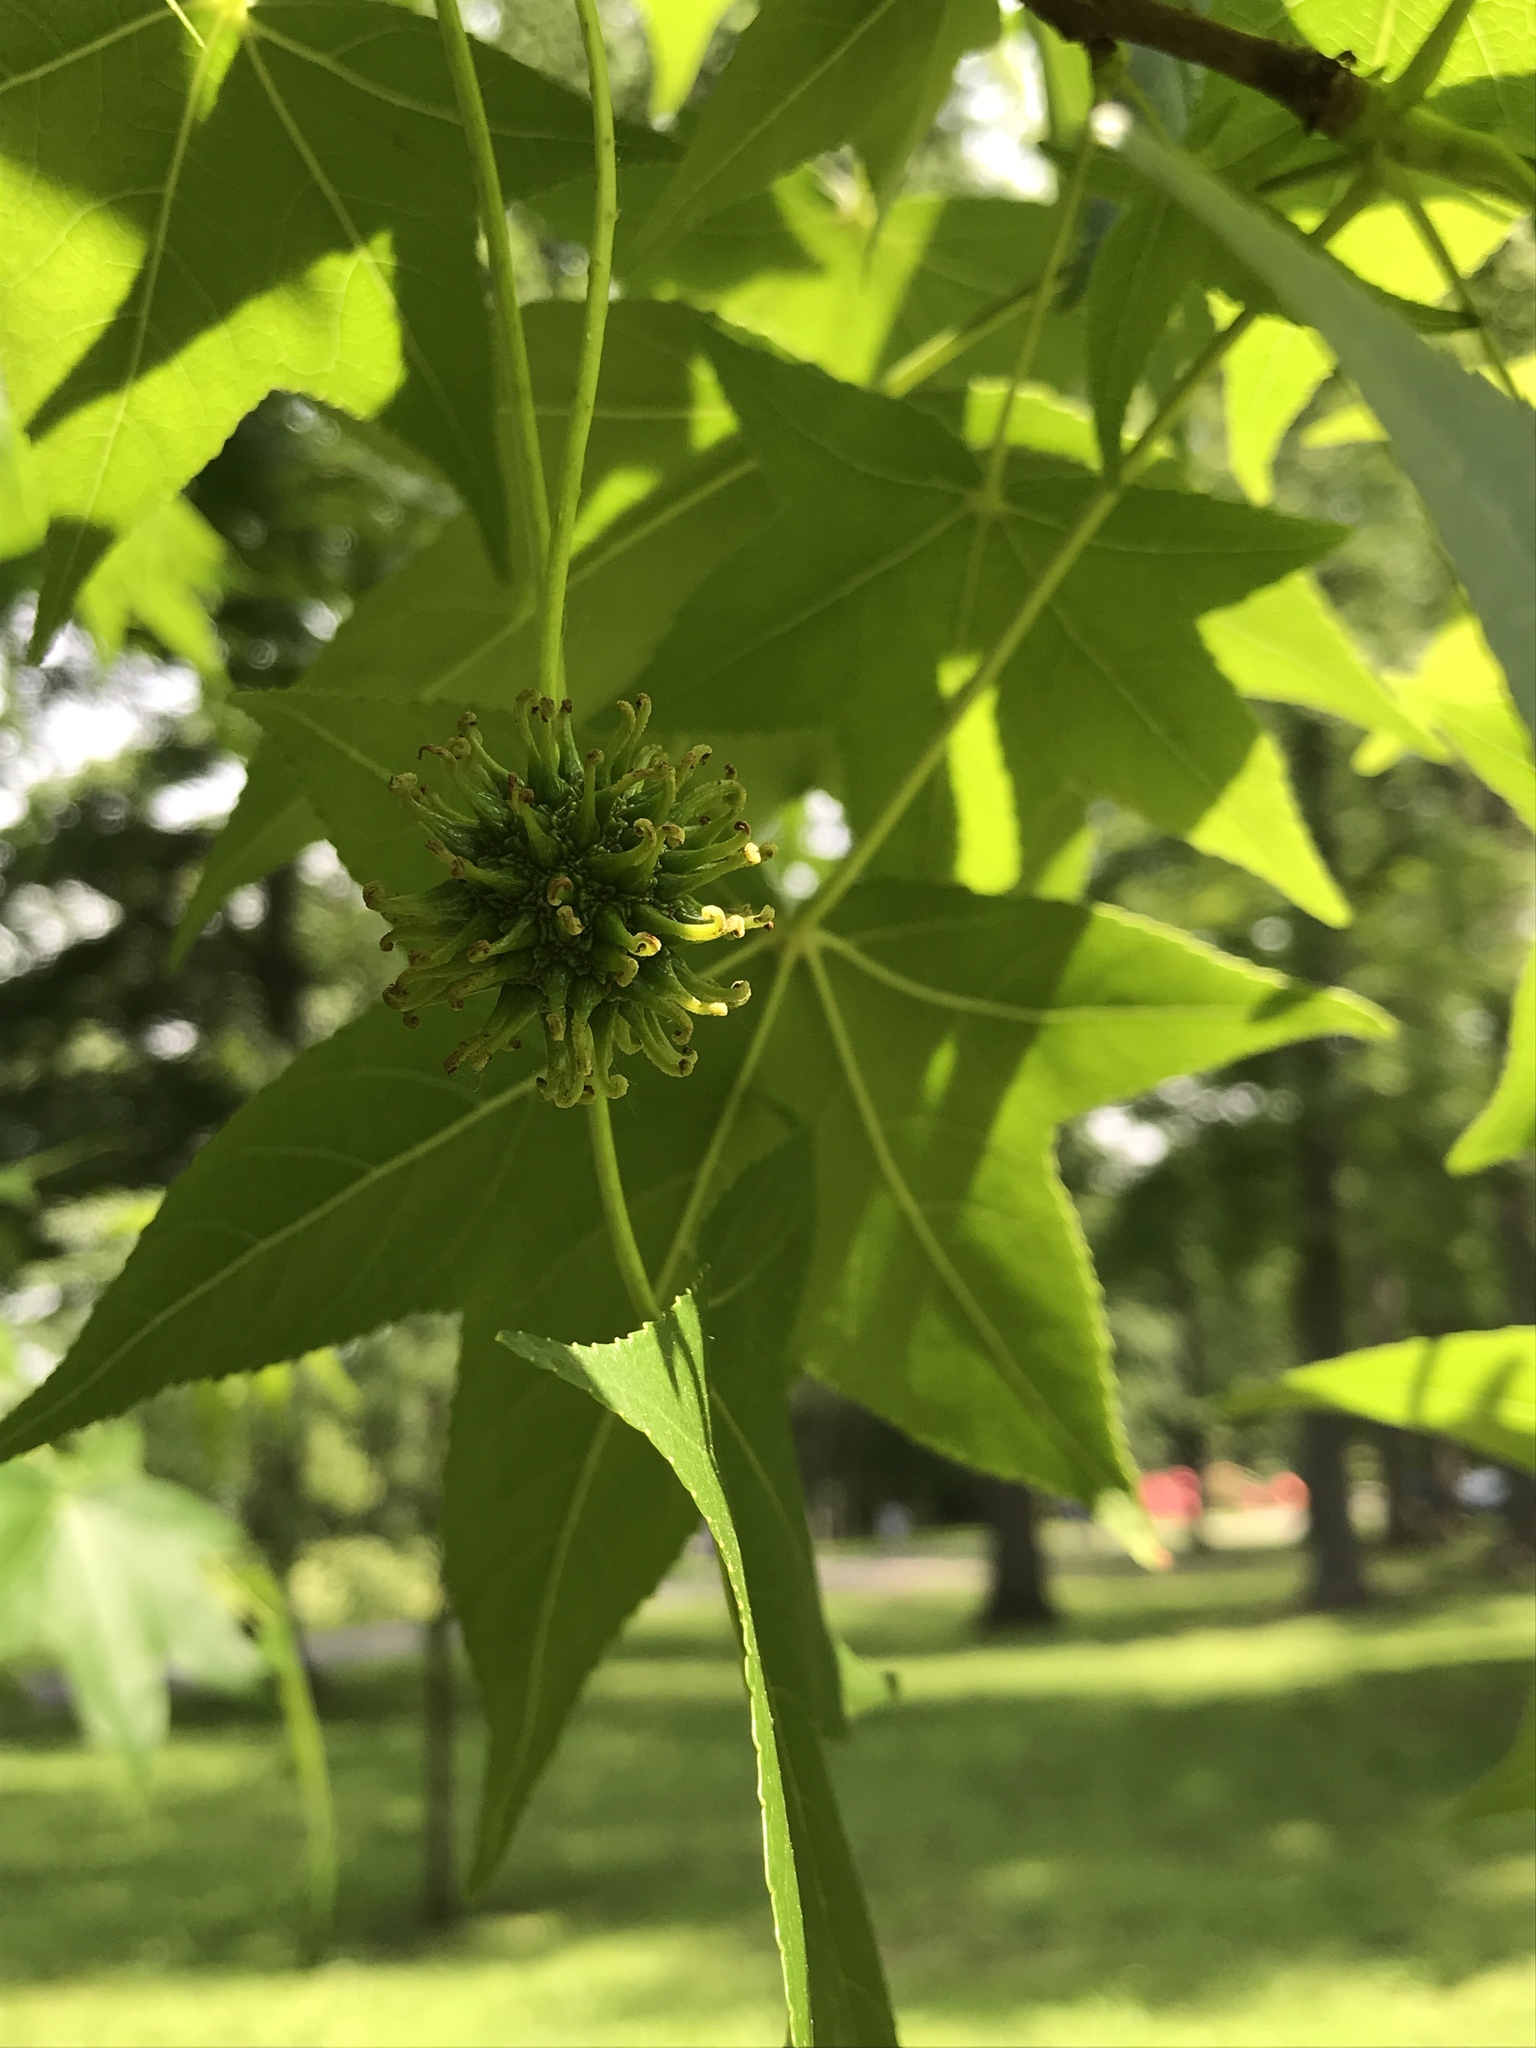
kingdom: Plantae
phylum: Tracheophyta
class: Magnoliopsida
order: Saxifragales
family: Altingiaceae
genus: Liquidambar
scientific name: Liquidambar styraciflua
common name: Sweet gum
